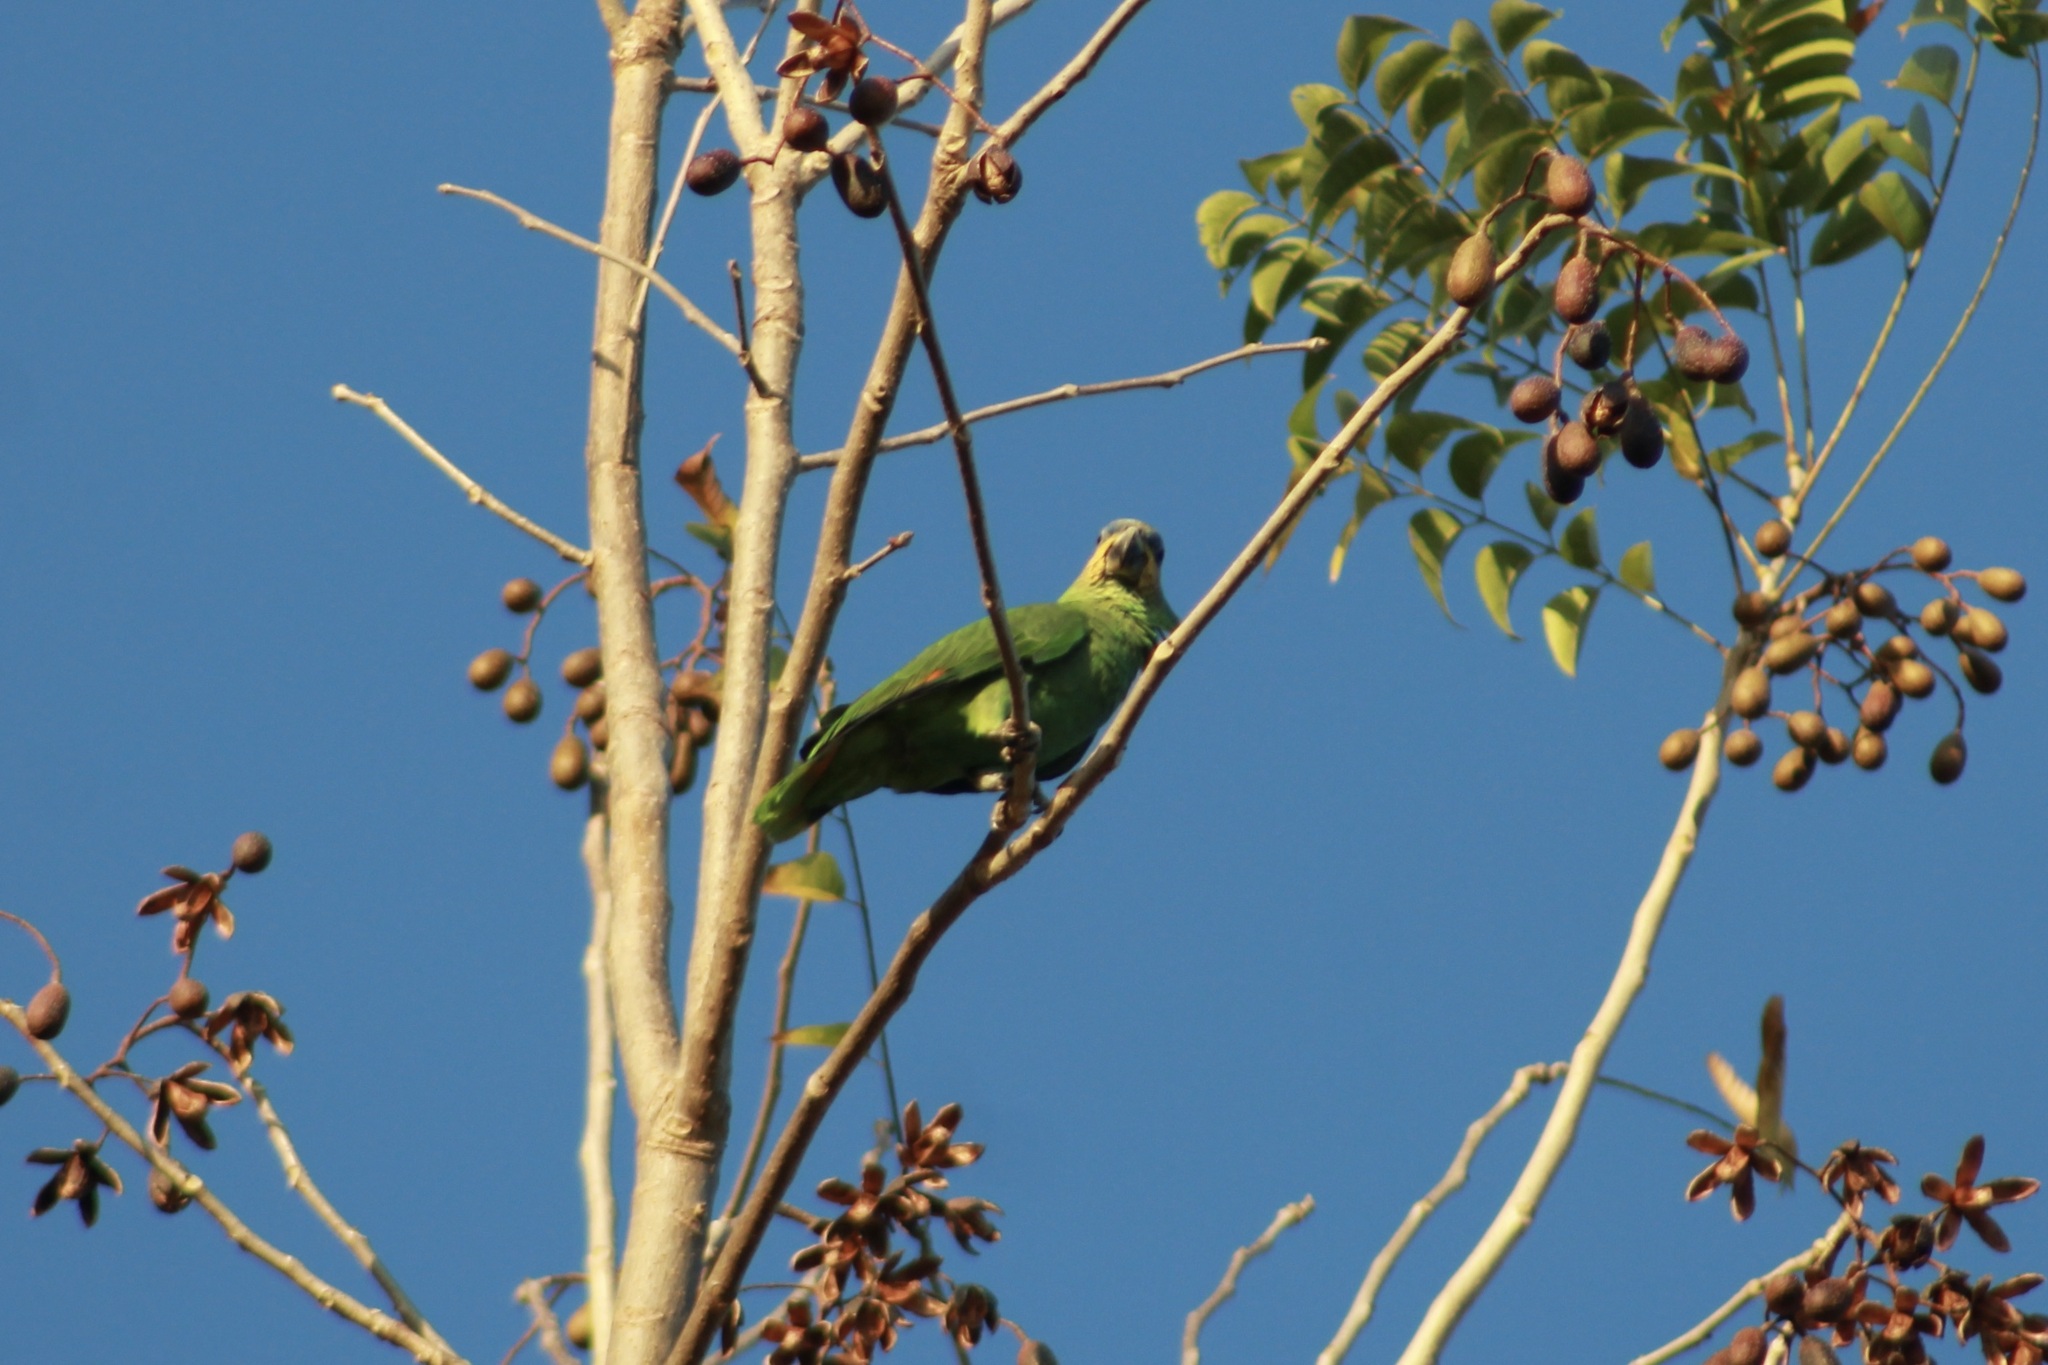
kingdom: Animalia
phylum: Chordata
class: Aves
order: Psittaciformes
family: Psittacidae
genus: Amazona
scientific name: Amazona amazonica
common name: Orange-winged amazon
